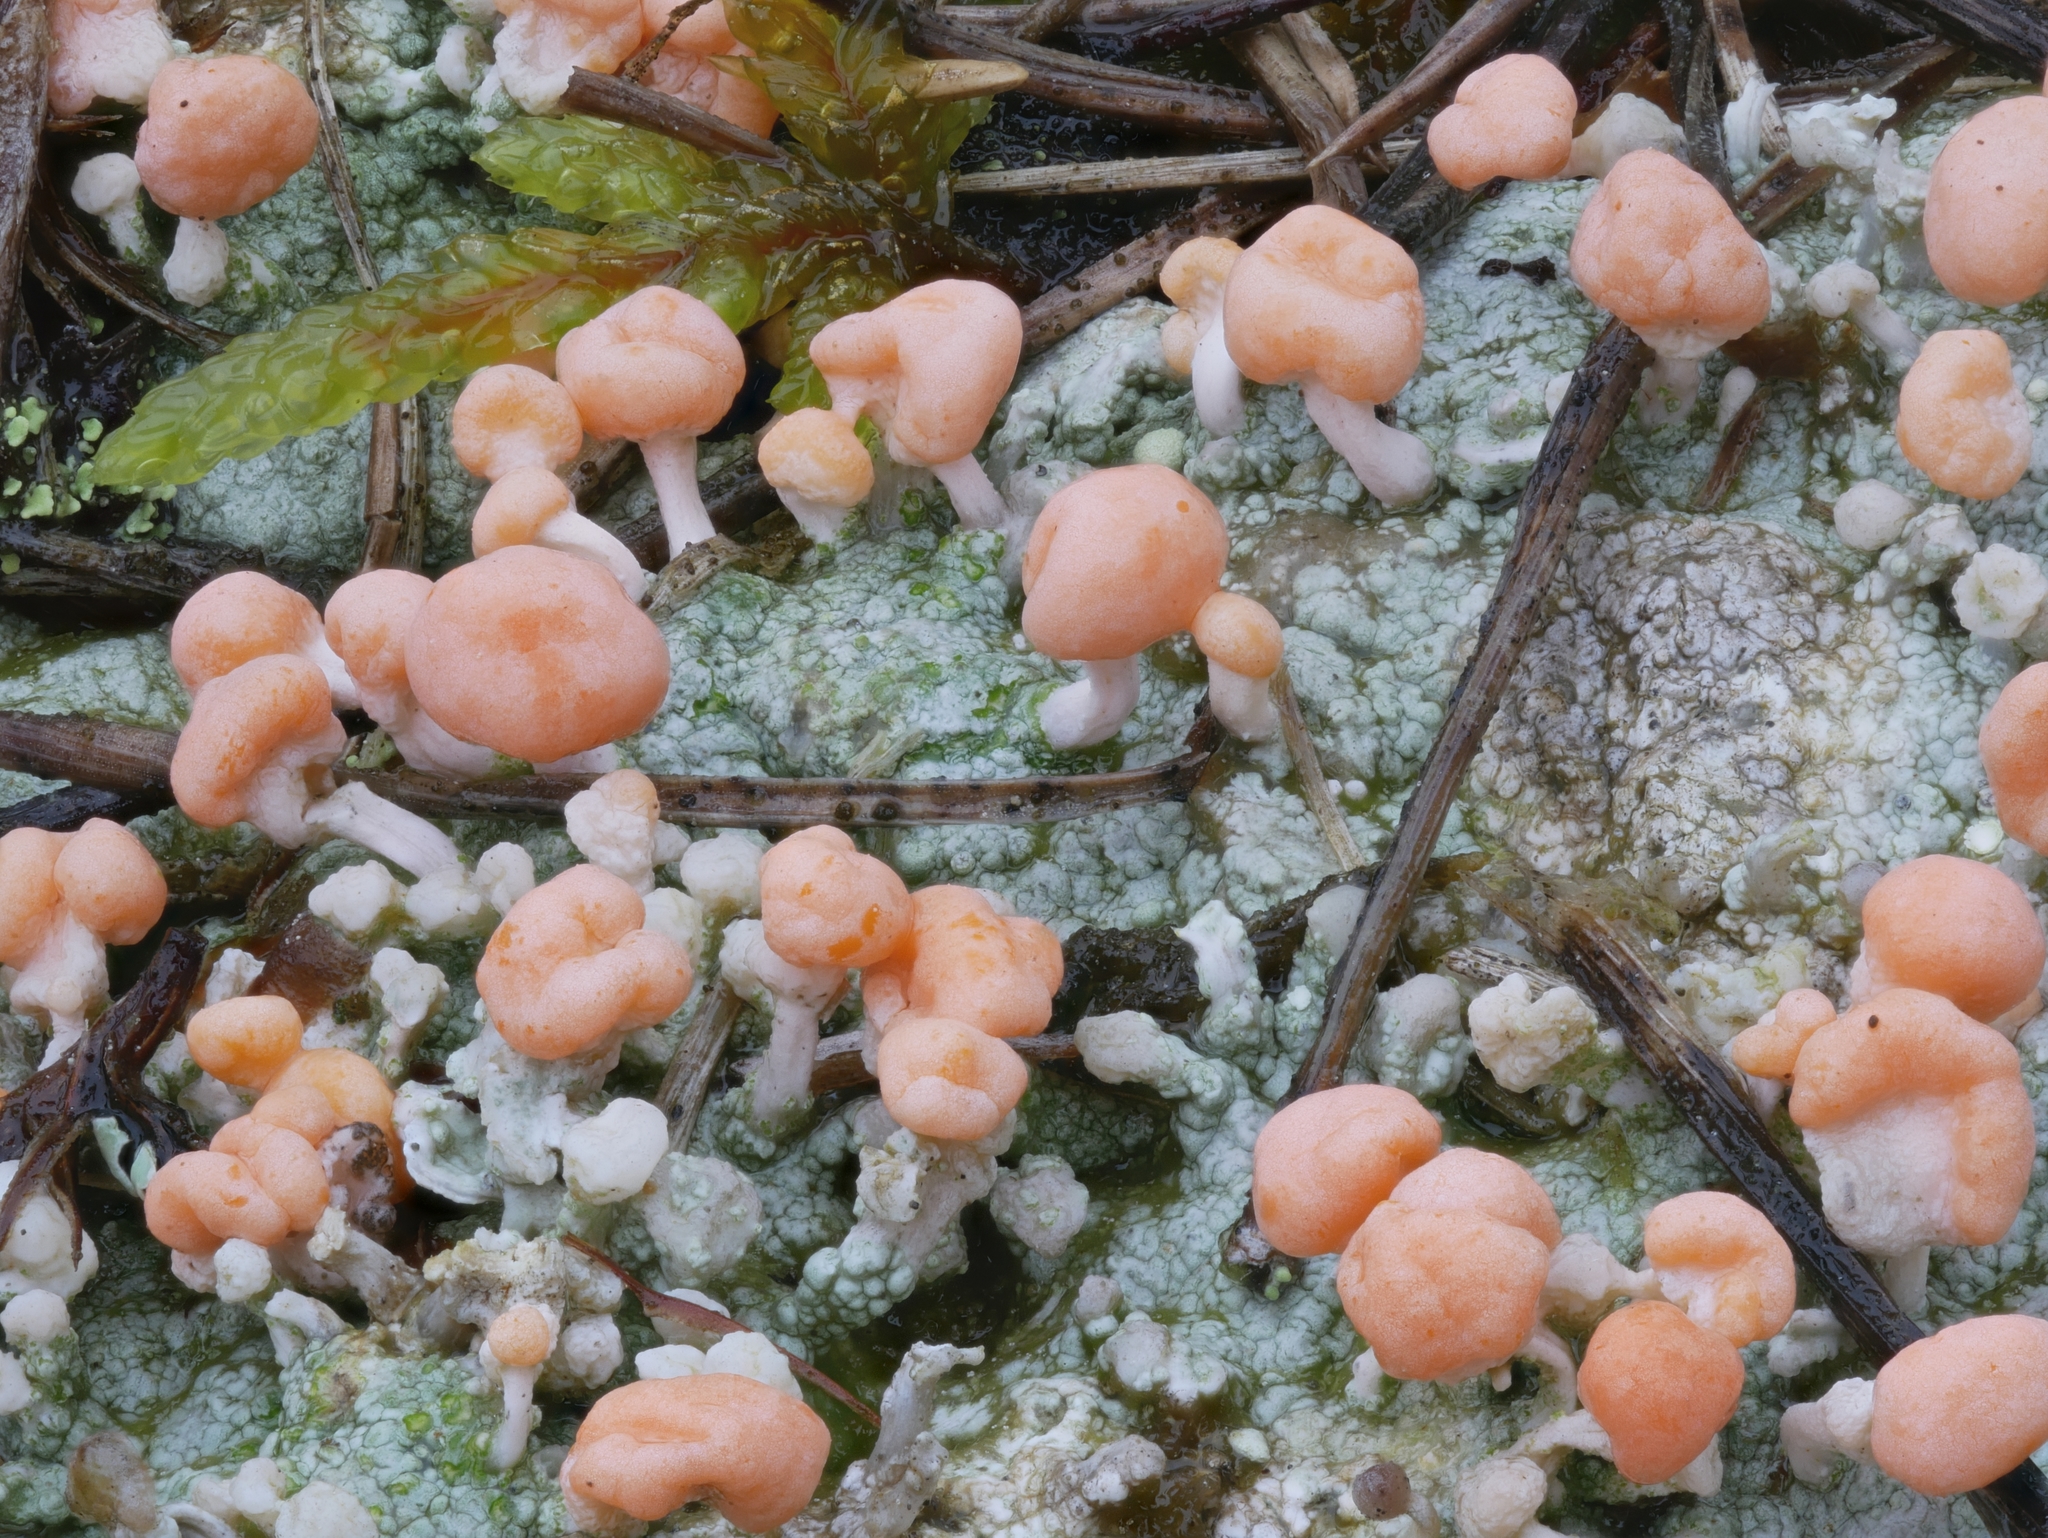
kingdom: Fungi
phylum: Ascomycota
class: Lecanoromycetes
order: Pertusariales
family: Icmadophilaceae
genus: Dibaeis
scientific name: Dibaeis baeomyces
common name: Pink earth lichen
